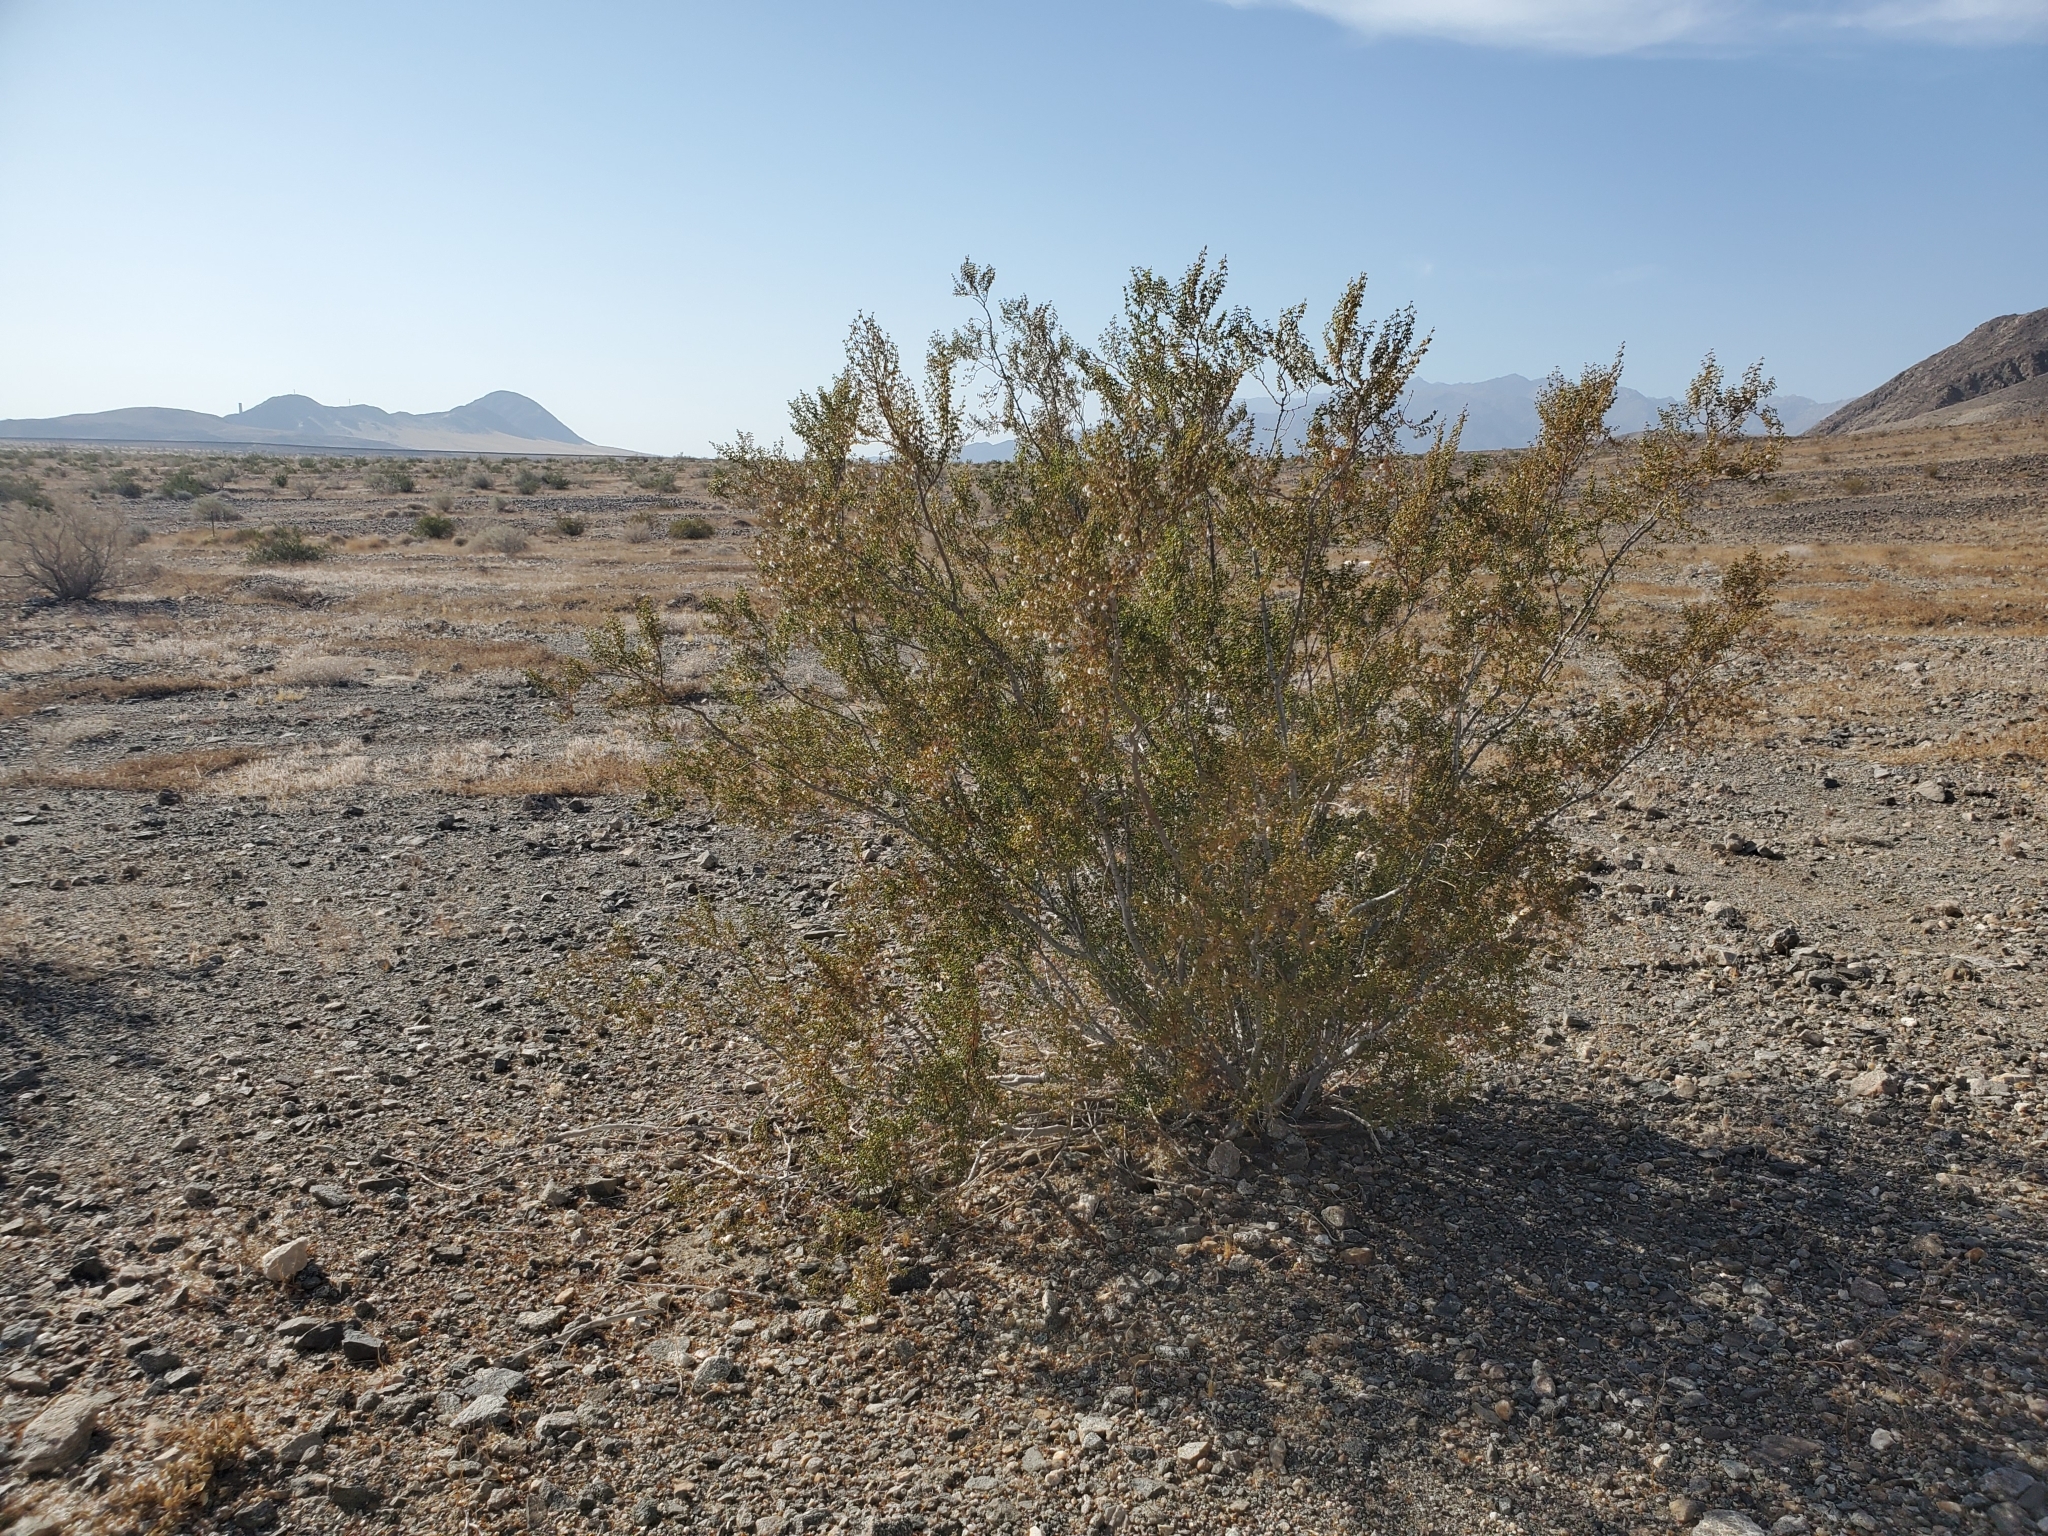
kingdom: Plantae
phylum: Tracheophyta
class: Magnoliopsida
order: Zygophyllales
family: Zygophyllaceae
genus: Larrea
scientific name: Larrea tridentata
